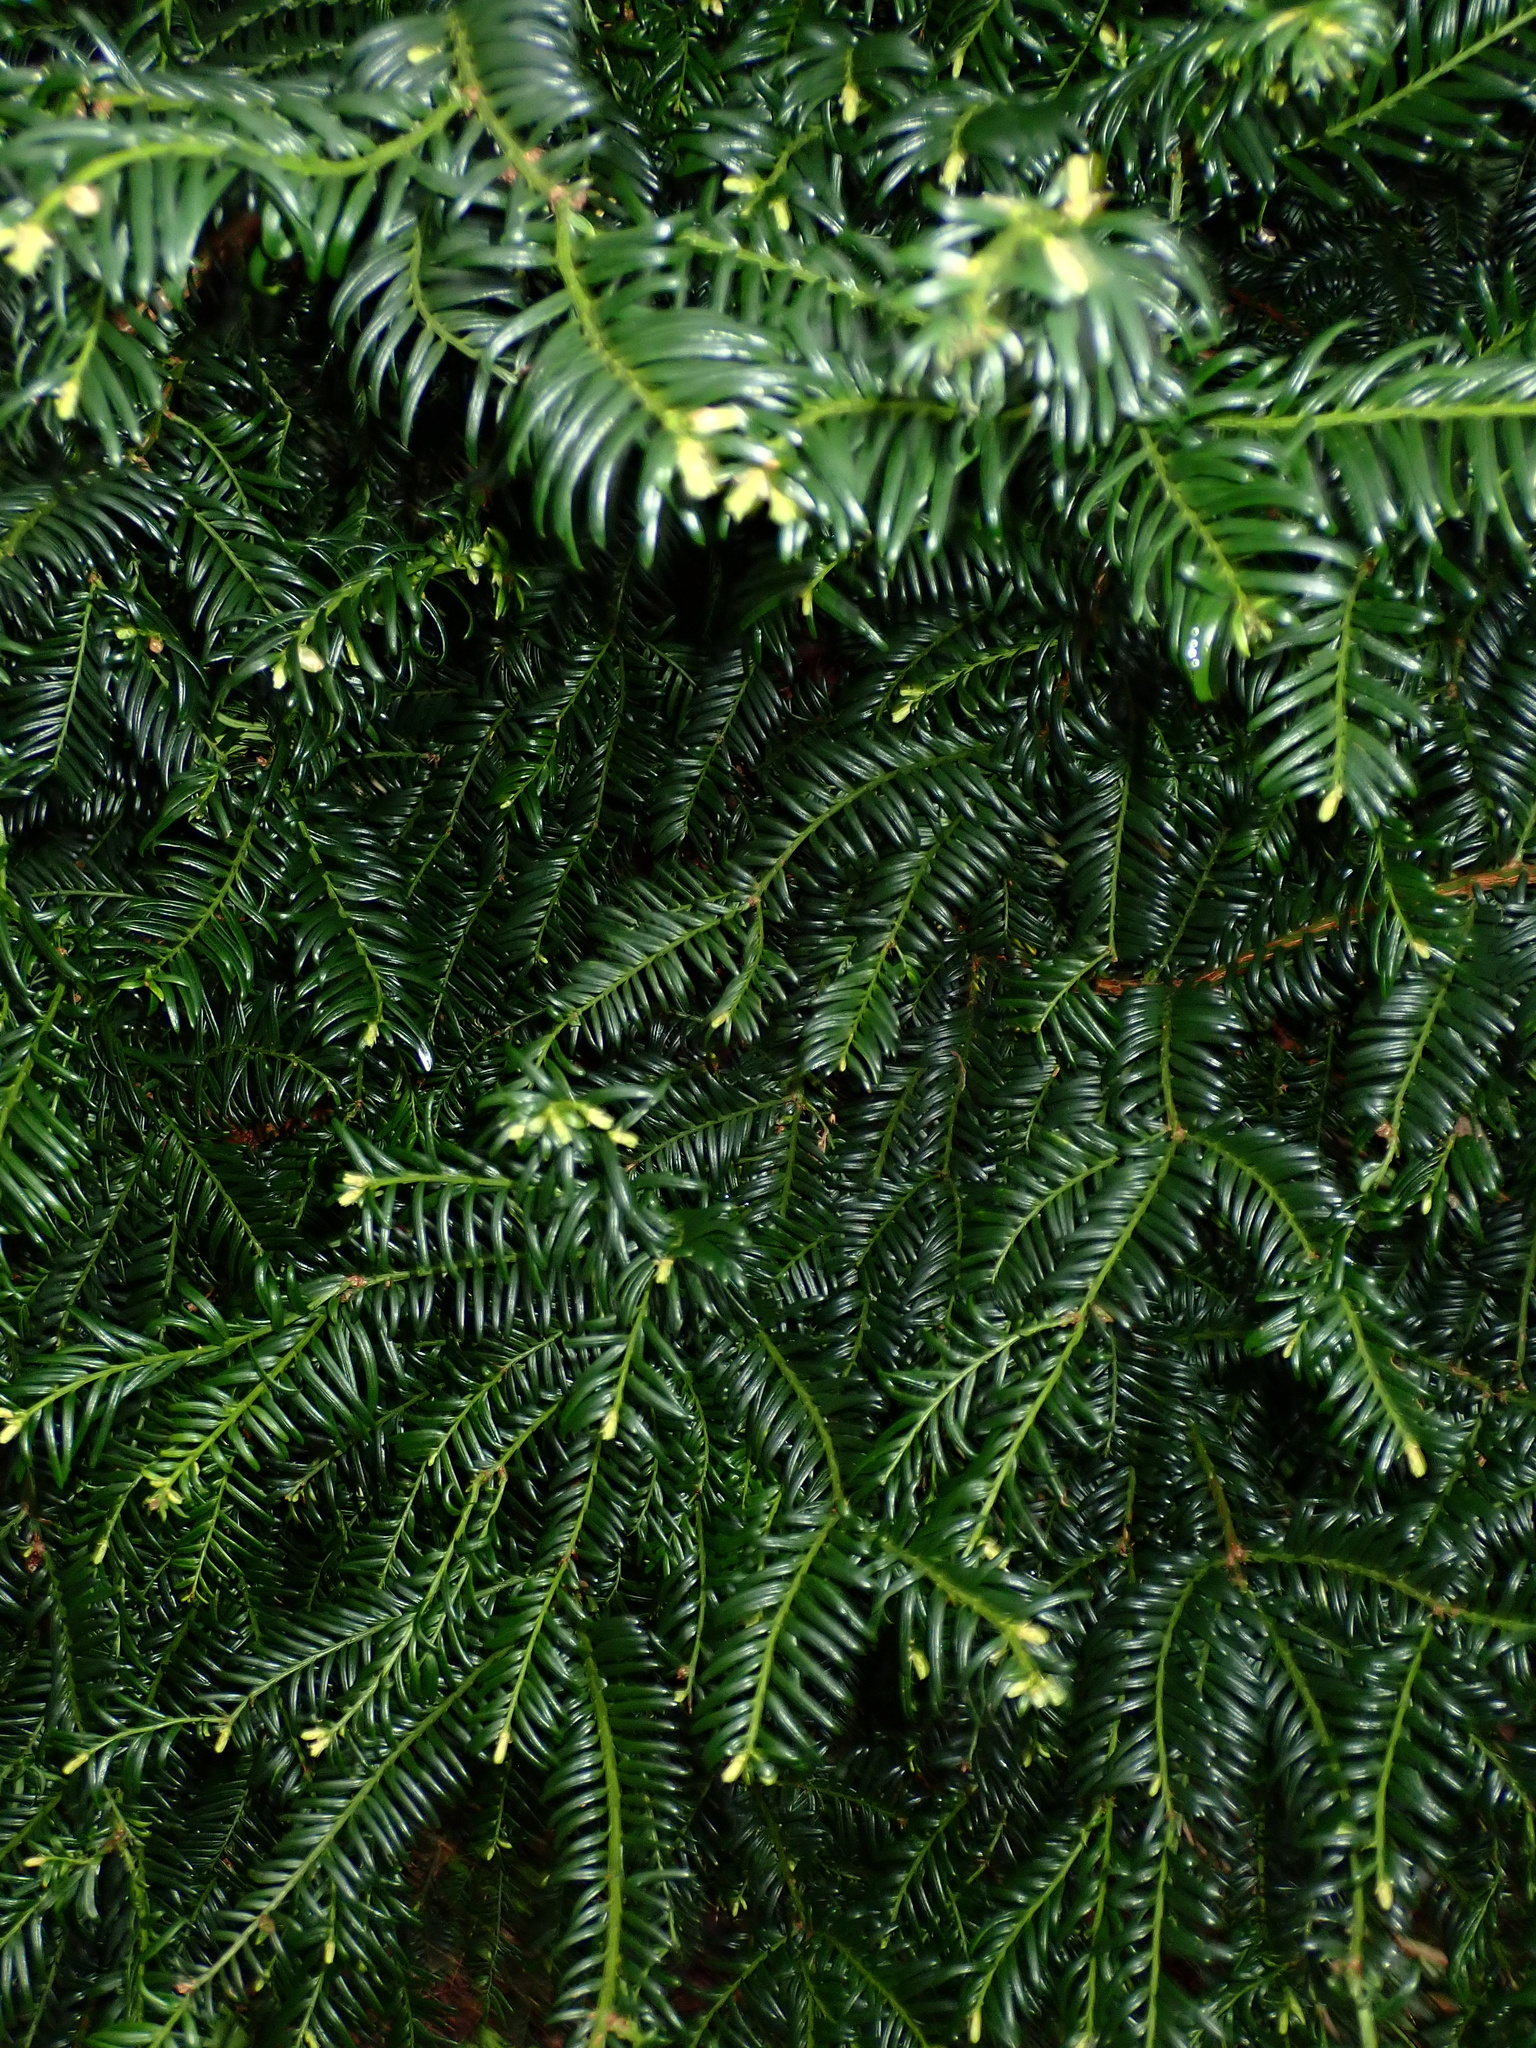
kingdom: Plantae
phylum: Tracheophyta
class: Pinopsida
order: Pinales
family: Taxaceae
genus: Taxus
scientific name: Taxus baccata
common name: Yew
